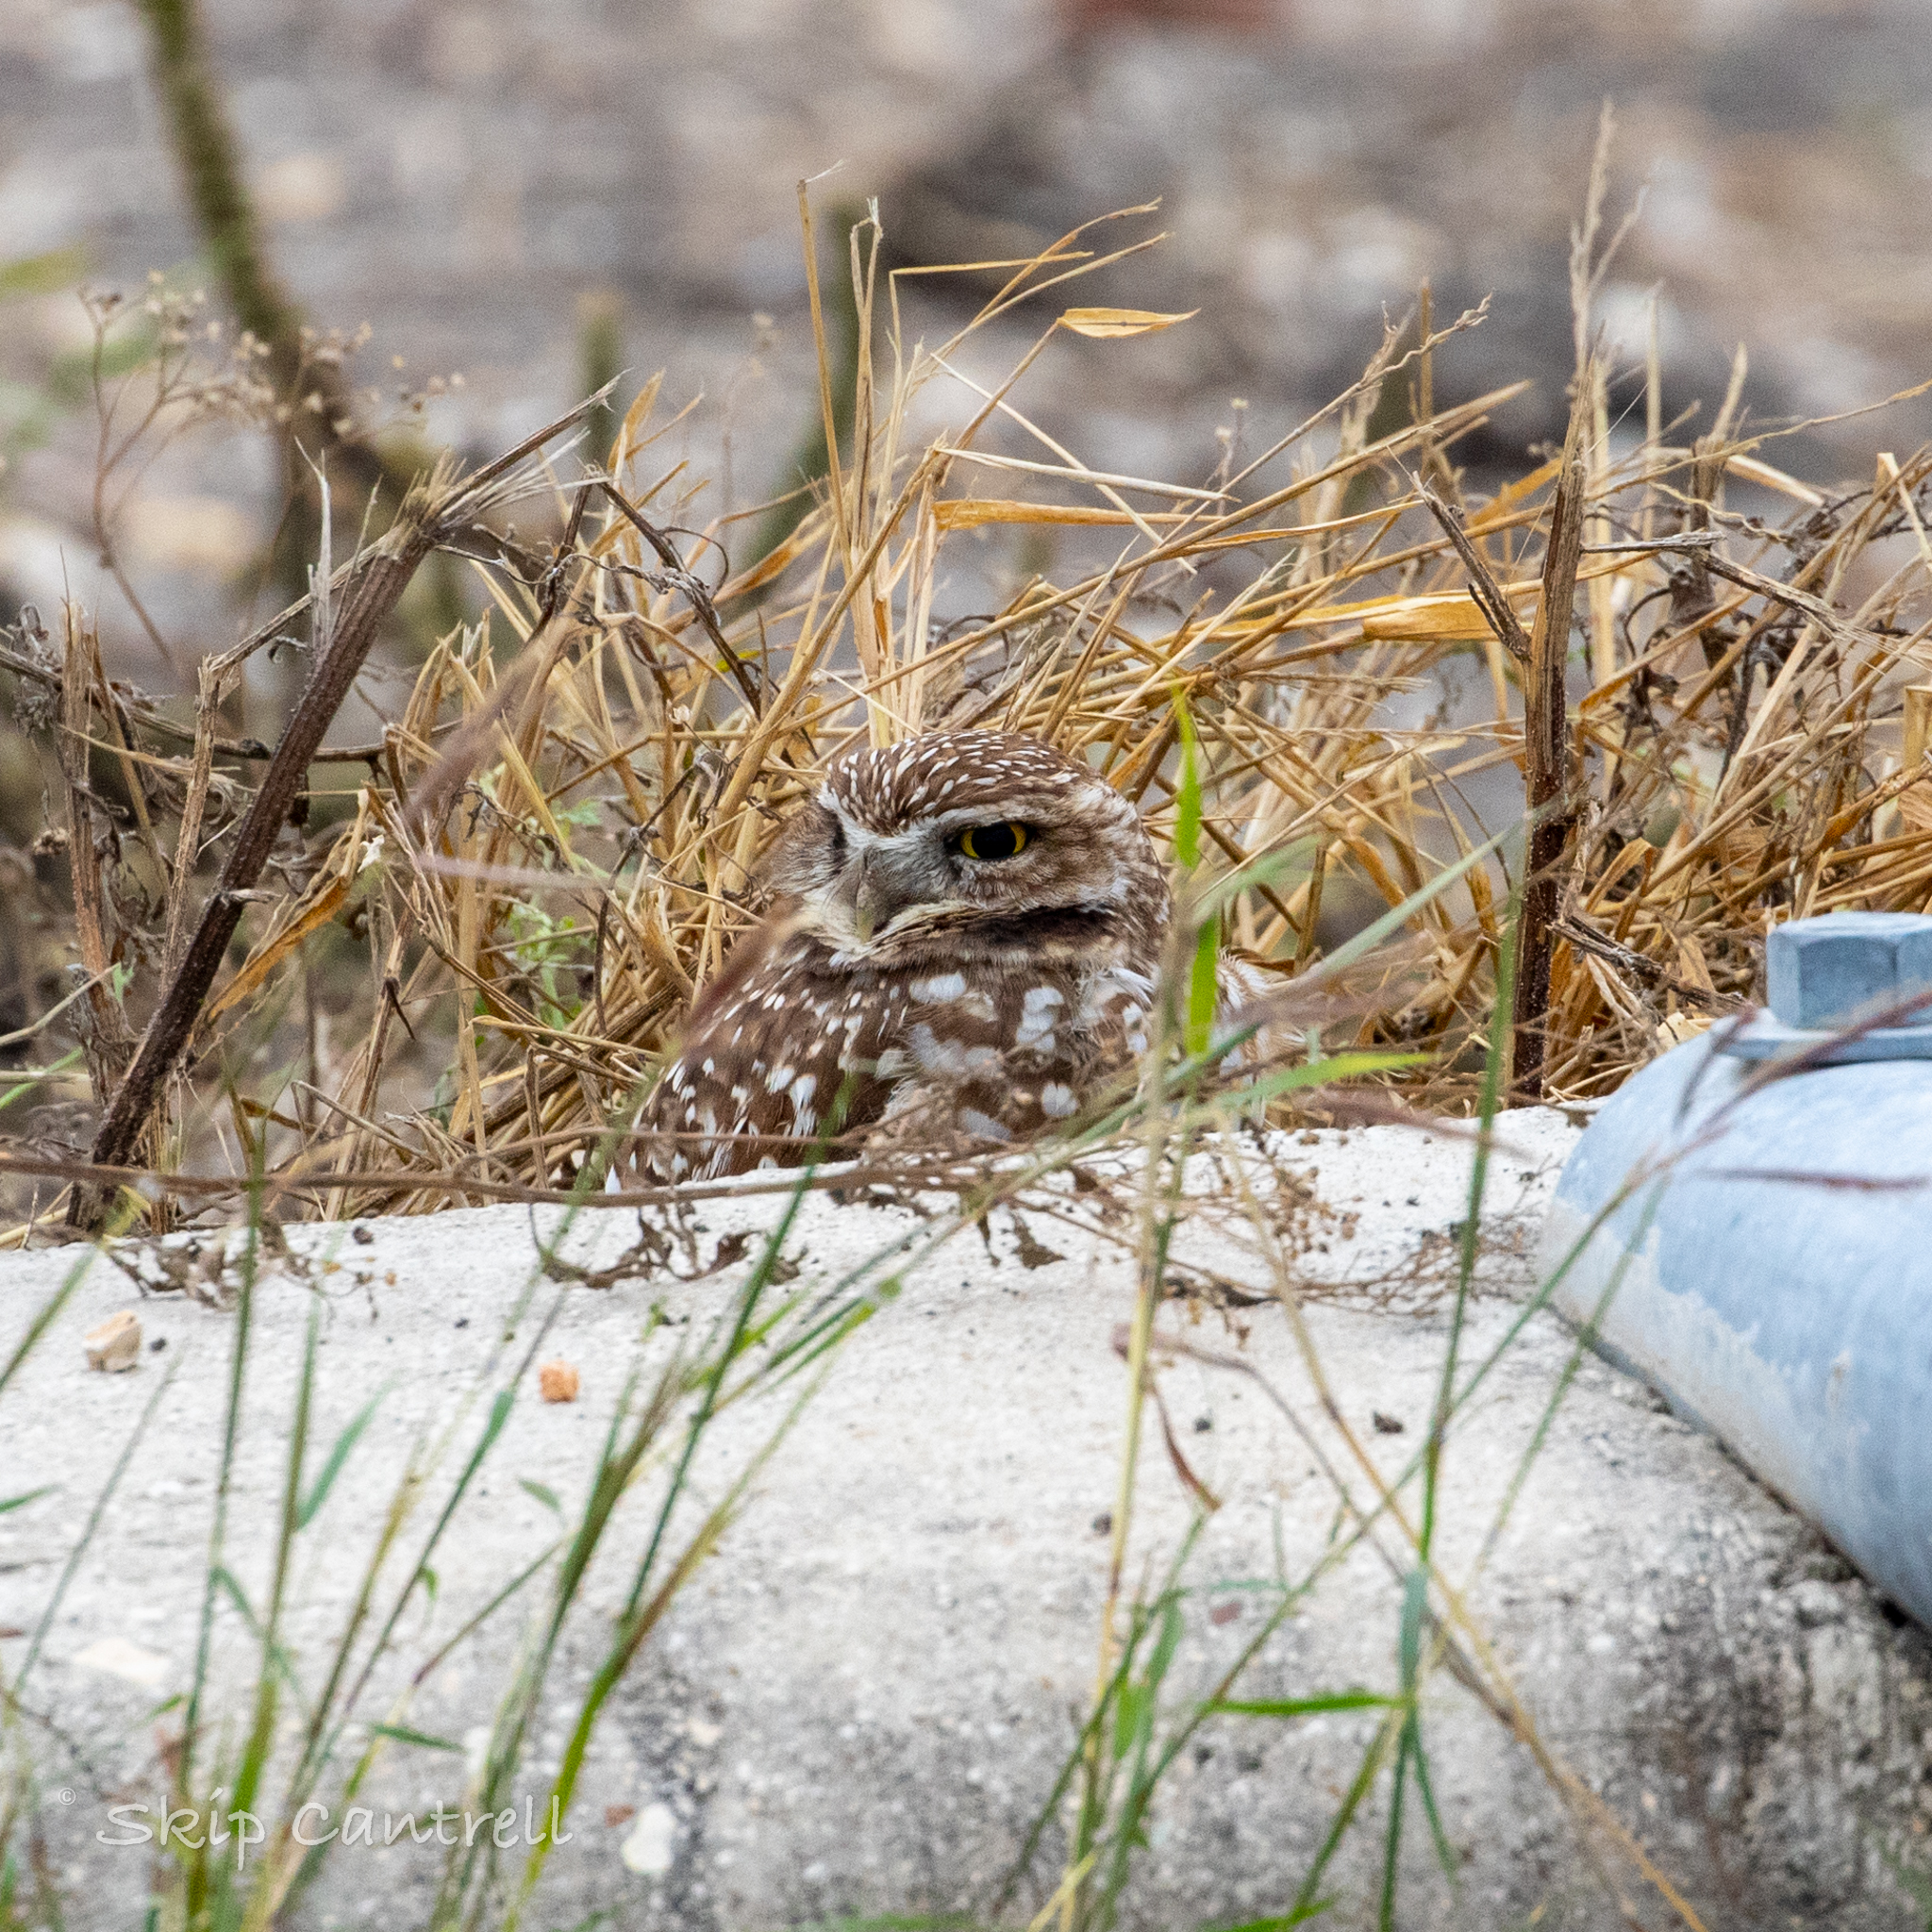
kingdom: Animalia
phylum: Chordata
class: Aves
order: Strigiformes
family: Strigidae
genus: Athene
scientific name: Athene cunicularia
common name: Burrowing owl
